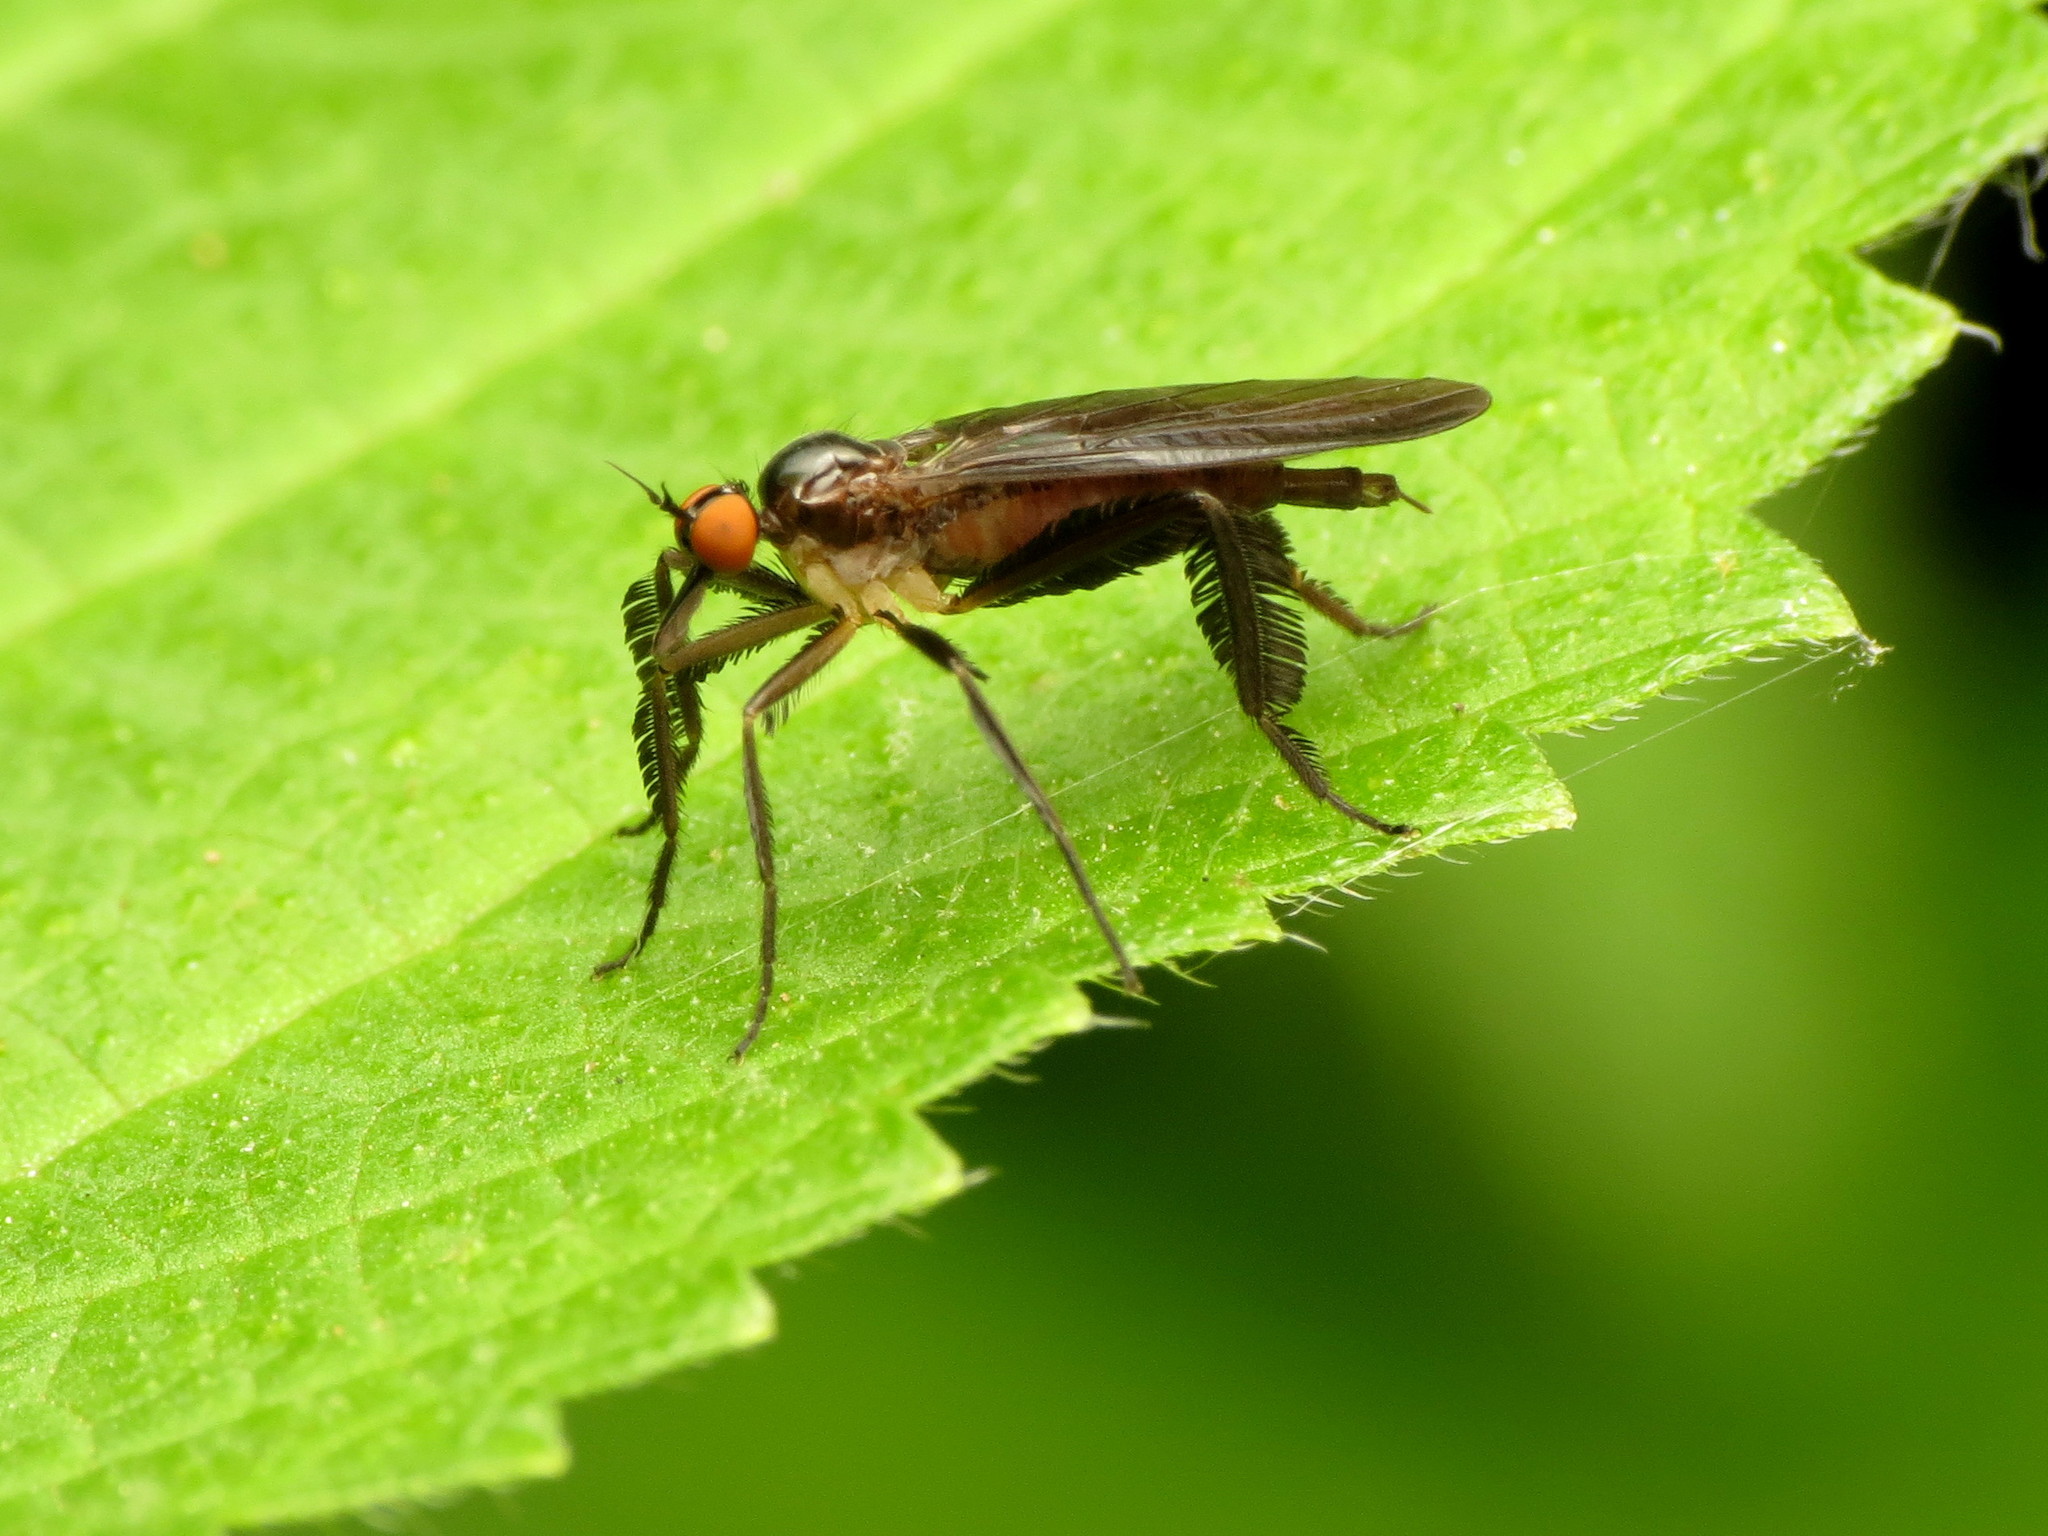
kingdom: Animalia
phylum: Arthropoda
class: Insecta
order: Diptera
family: Empididae
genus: Rhamphomyia
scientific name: Rhamphomyia longicauda
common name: Long-tailed dance fly
